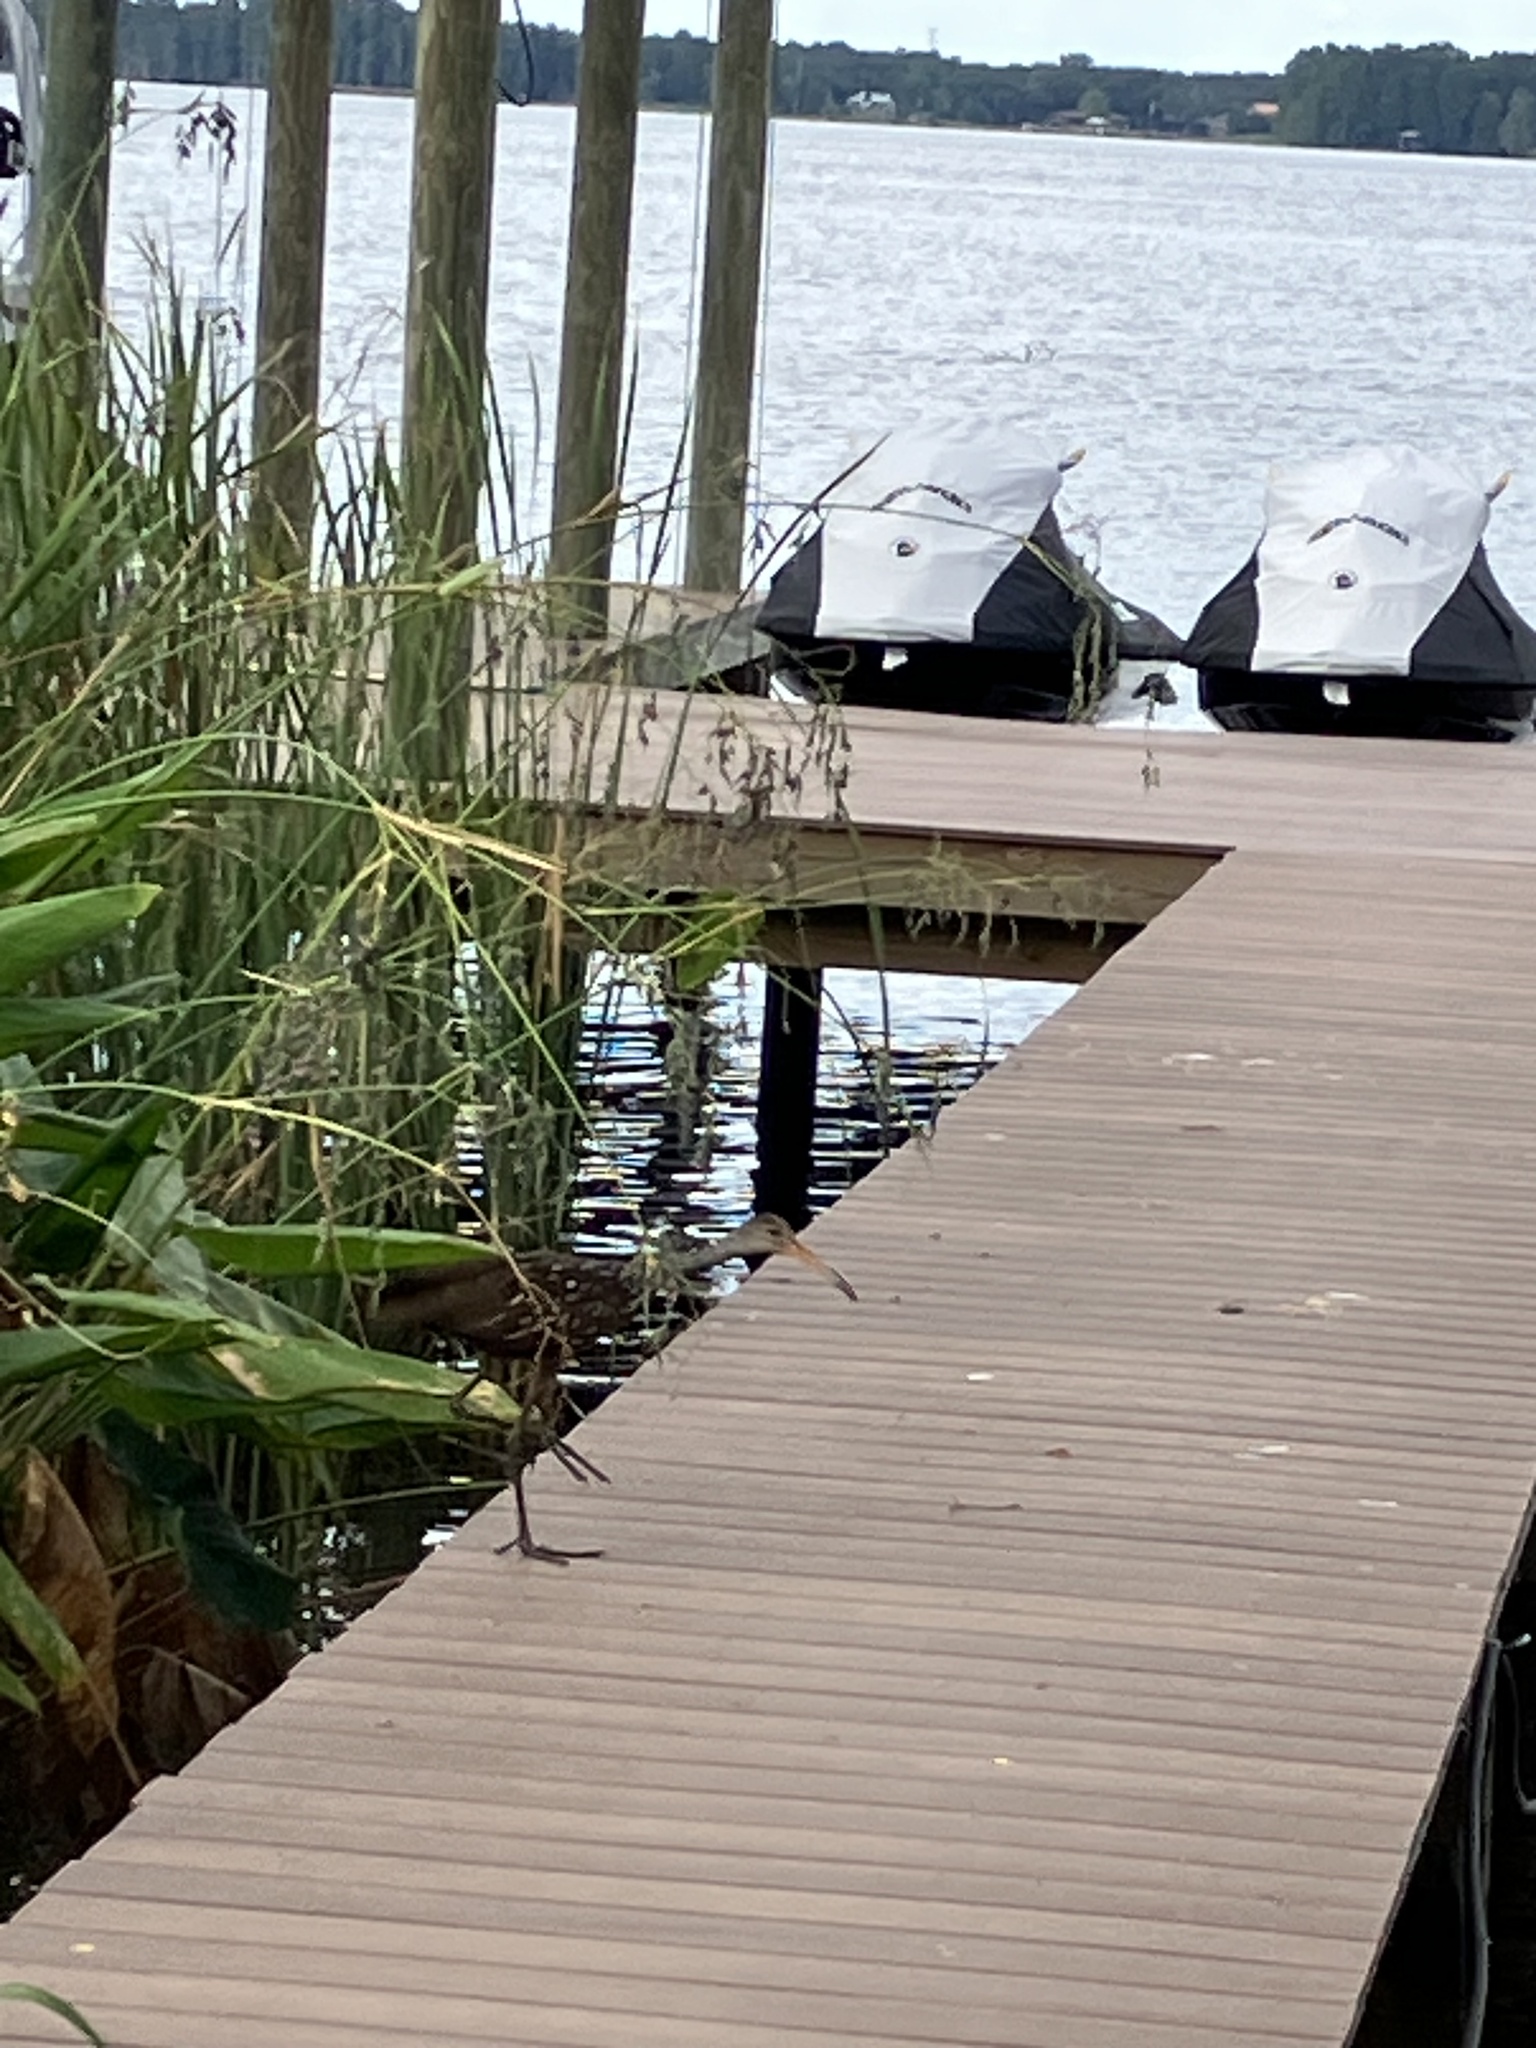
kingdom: Animalia
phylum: Chordata
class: Aves
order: Gruiformes
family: Aramidae
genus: Aramus
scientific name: Aramus guarauna
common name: Limpkin
